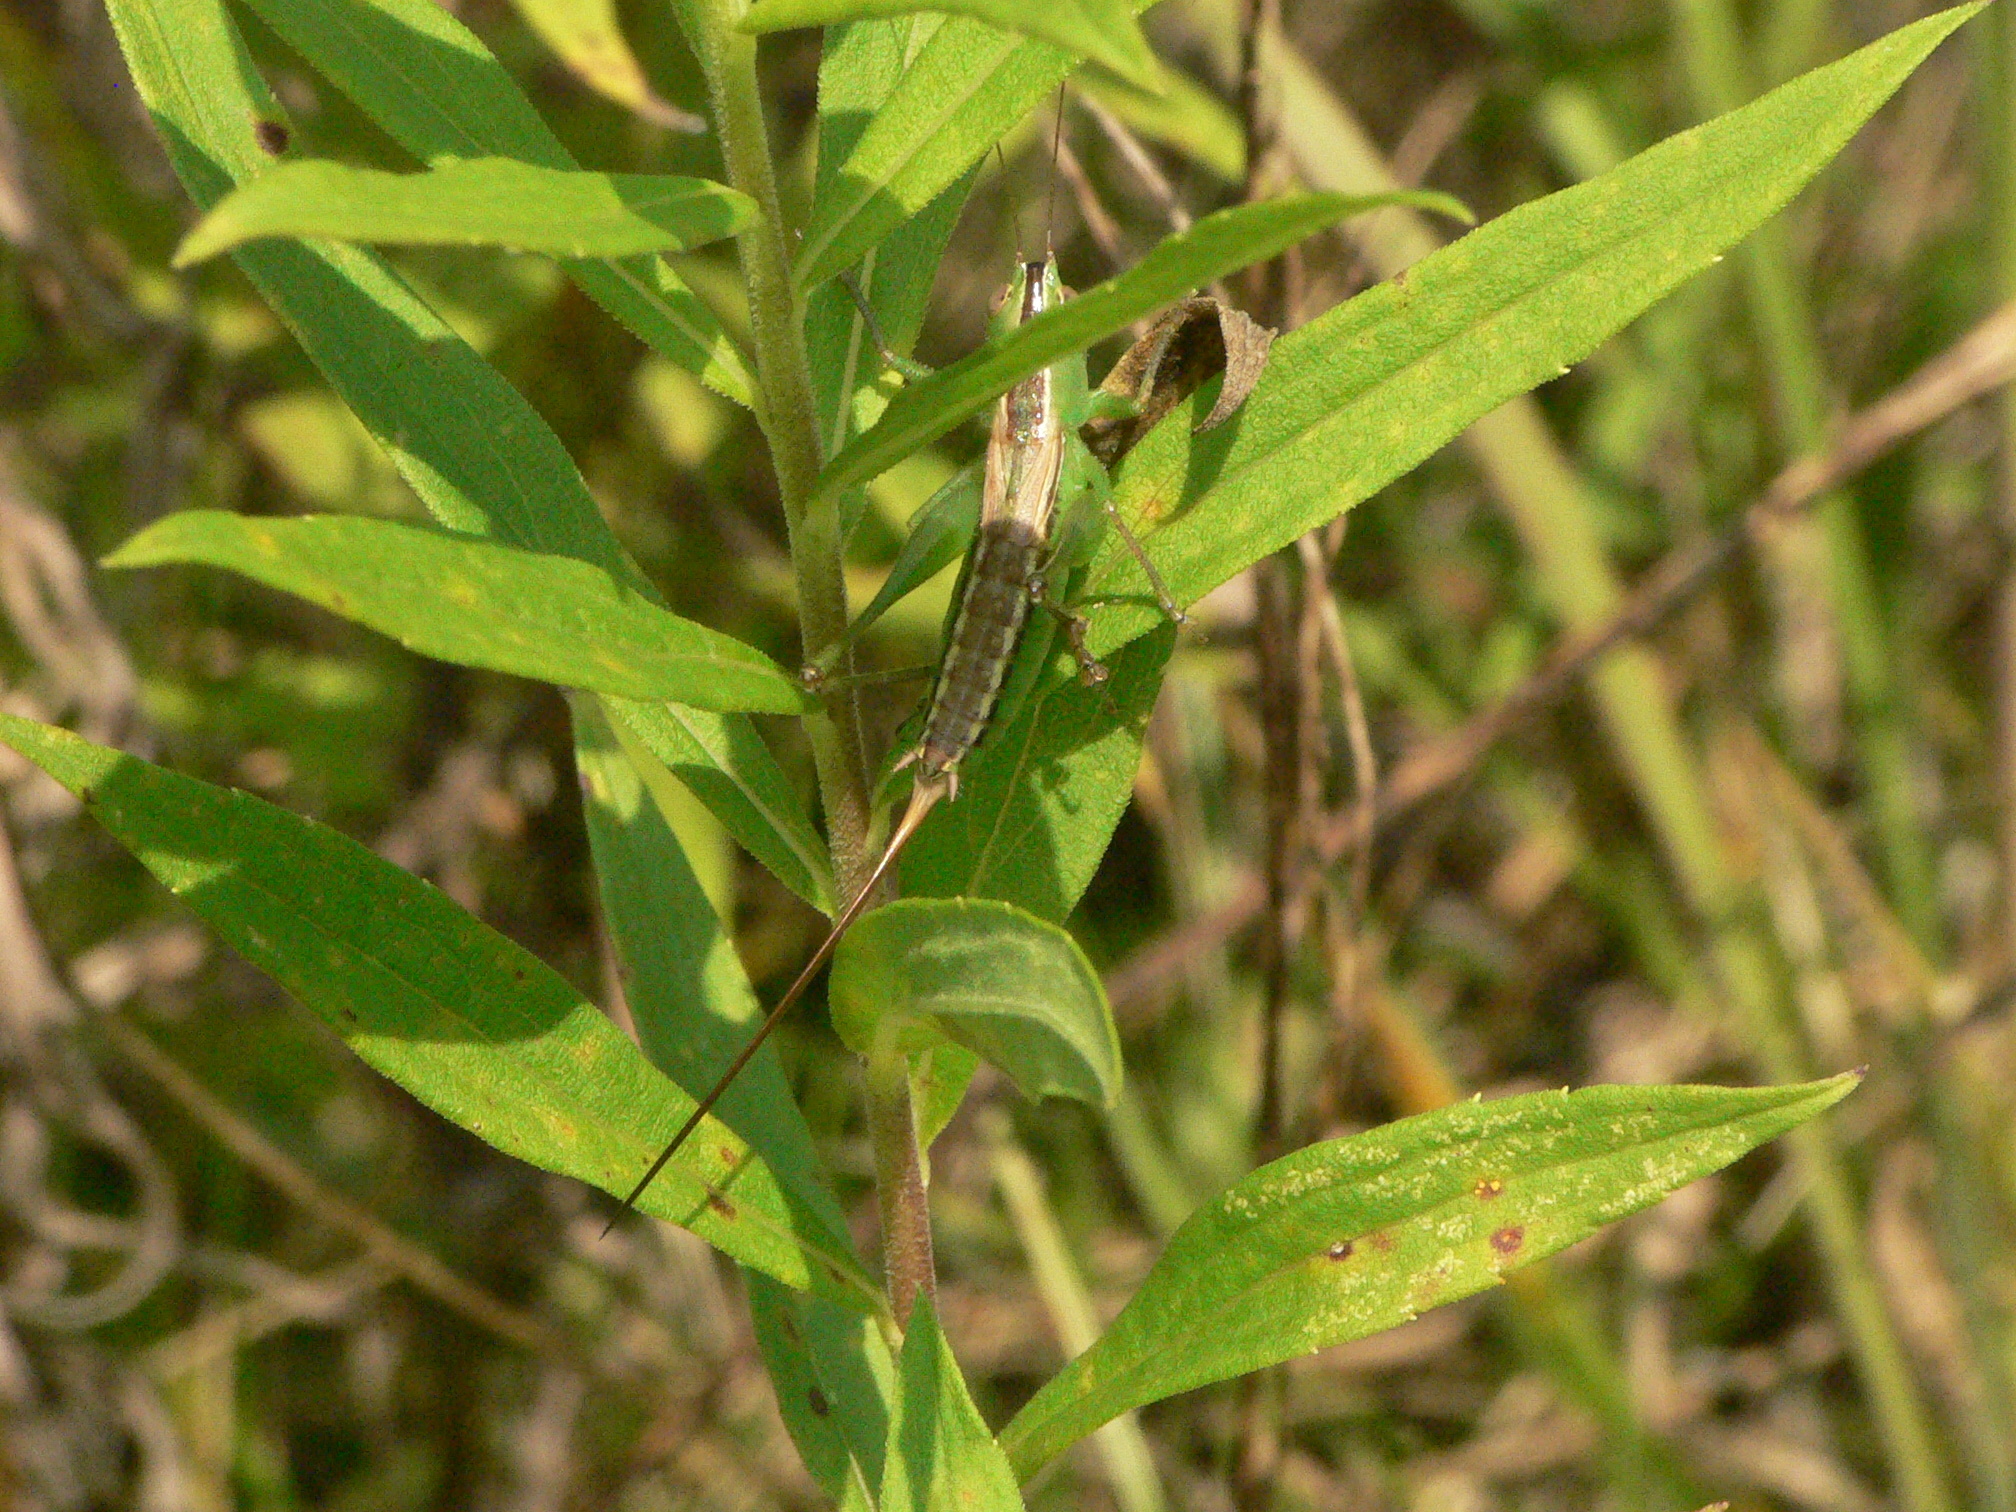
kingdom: Animalia
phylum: Arthropoda
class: Insecta
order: Orthoptera
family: Tettigoniidae
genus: Conocephalus
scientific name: Conocephalus strictus
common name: Straight-lanced katydid
